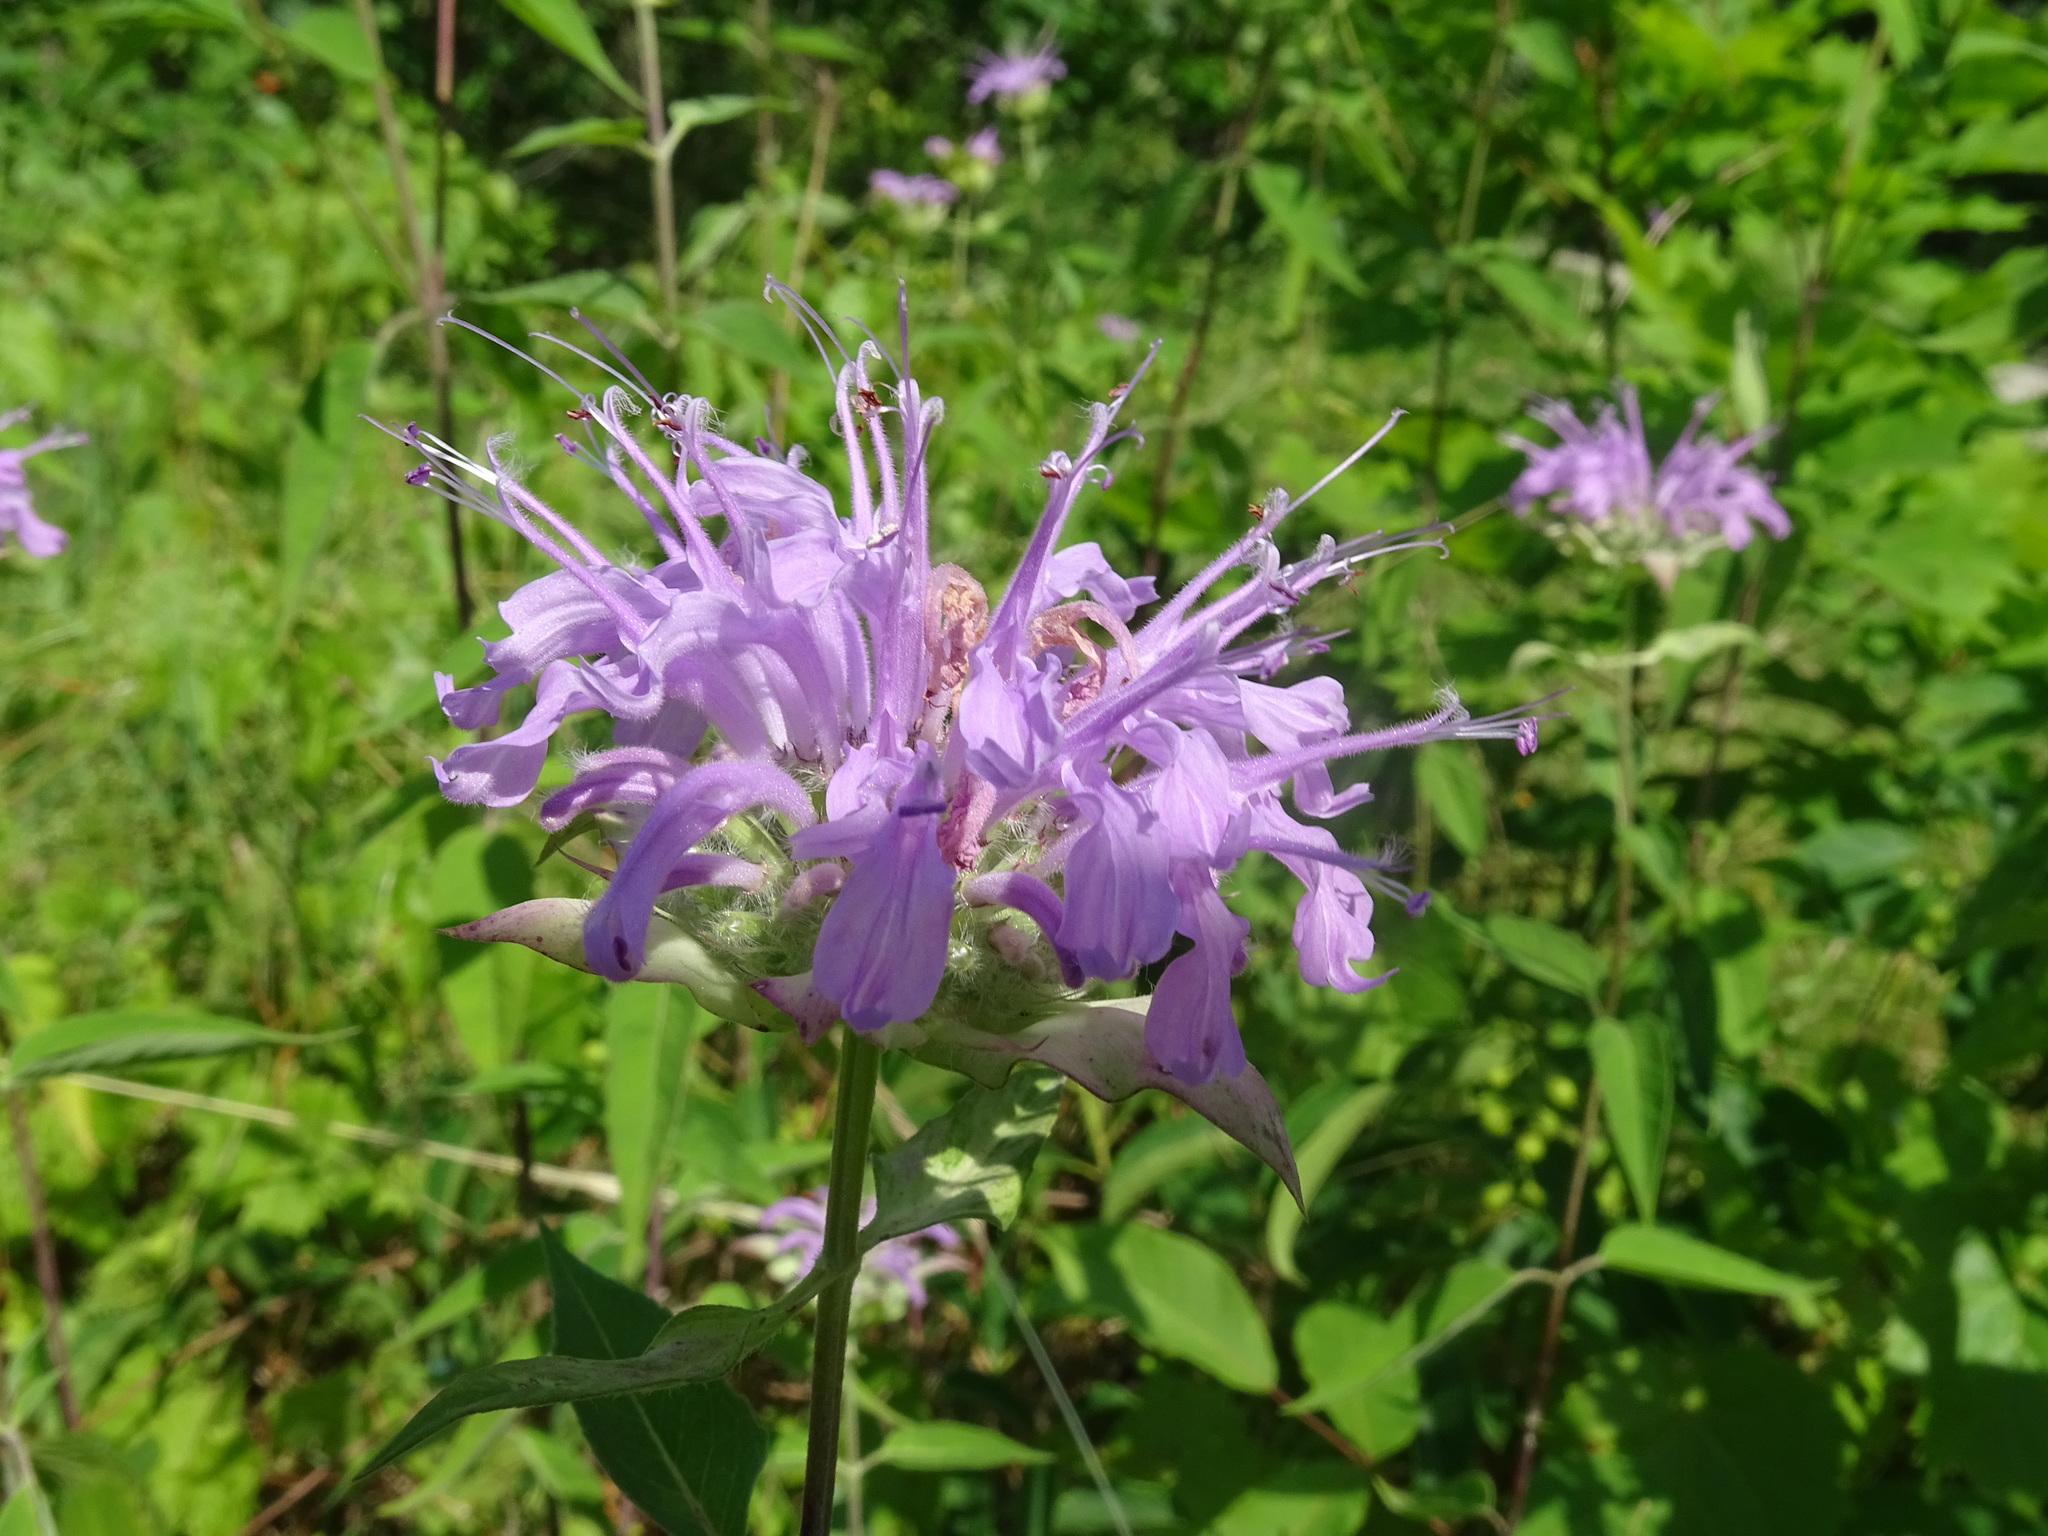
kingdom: Plantae
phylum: Tracheophyta
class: Magnoliopsida
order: Lamiales
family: Lamiaceae
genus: Monarda
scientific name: Monarda fistulosa
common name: Purple beebalm
